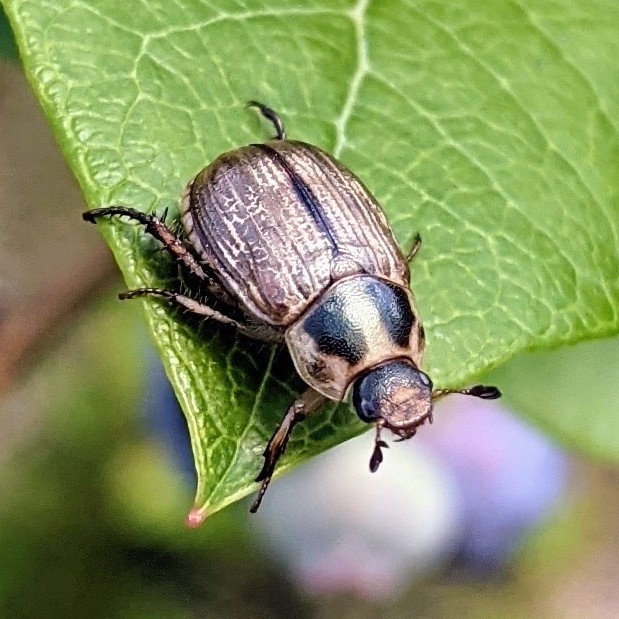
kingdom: Animalia
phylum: Arthropoda
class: Insecta
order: Coleoptera
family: Scarabaeidae
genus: Exomala
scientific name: Exomala orientalis
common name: Oriental beetle
